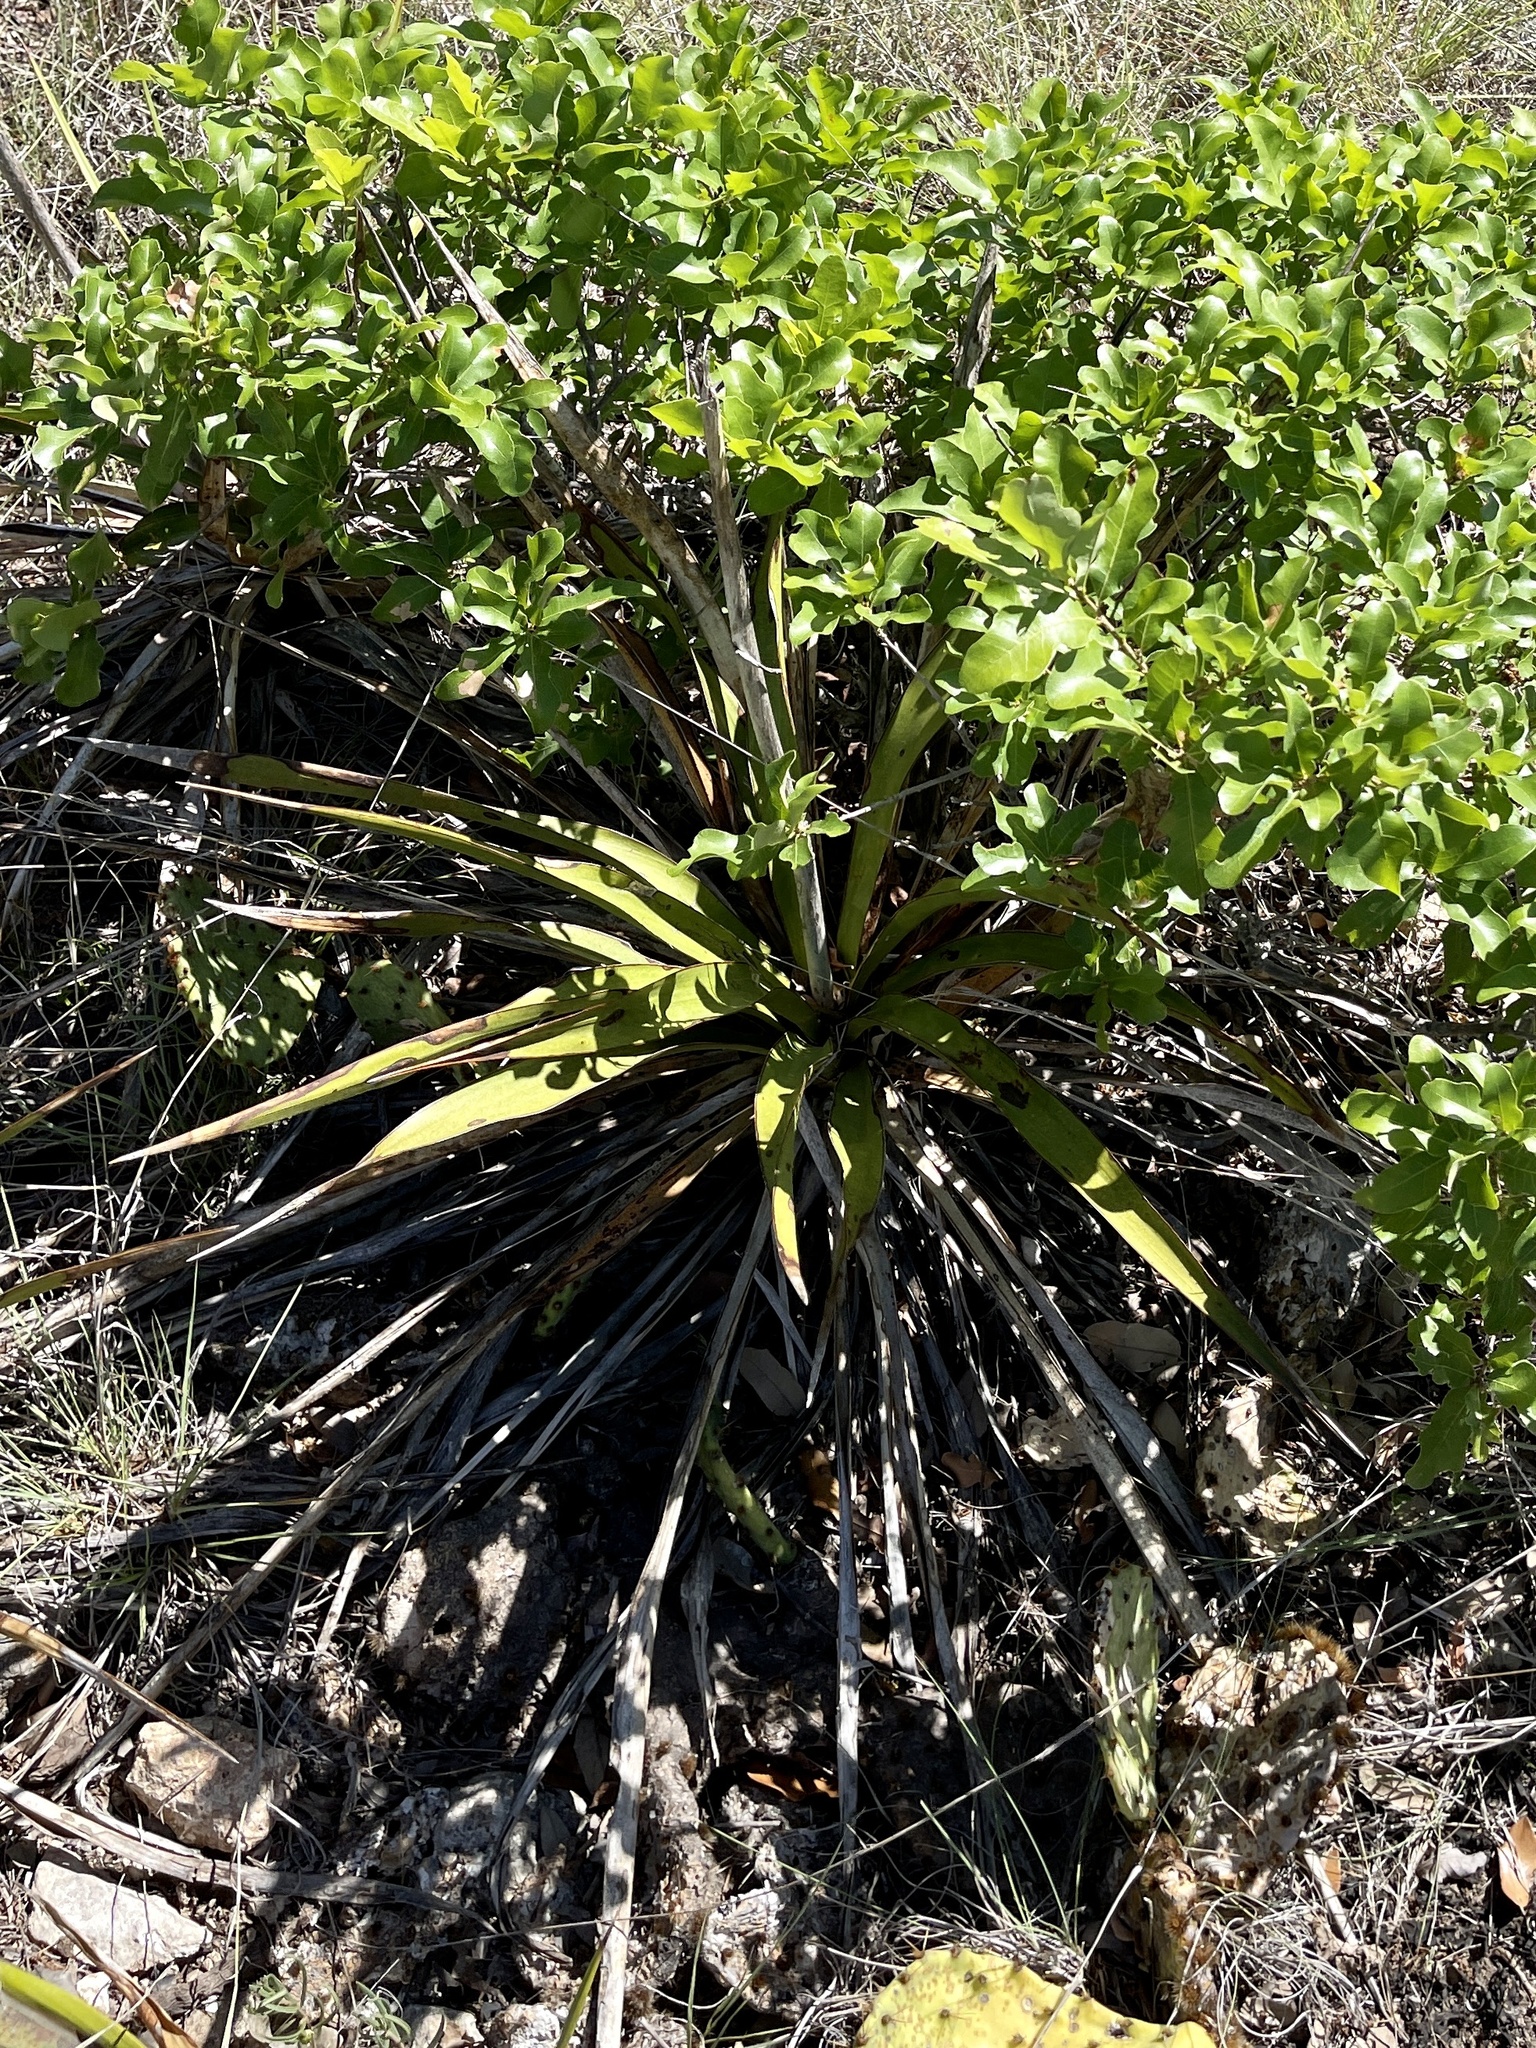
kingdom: Plantae
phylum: Tracheophyta
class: Liliopsida
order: Asparagales
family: Asparagaceae
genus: Yucca
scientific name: Yucca rupicola
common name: Twisted-leaf spanish-dagger
